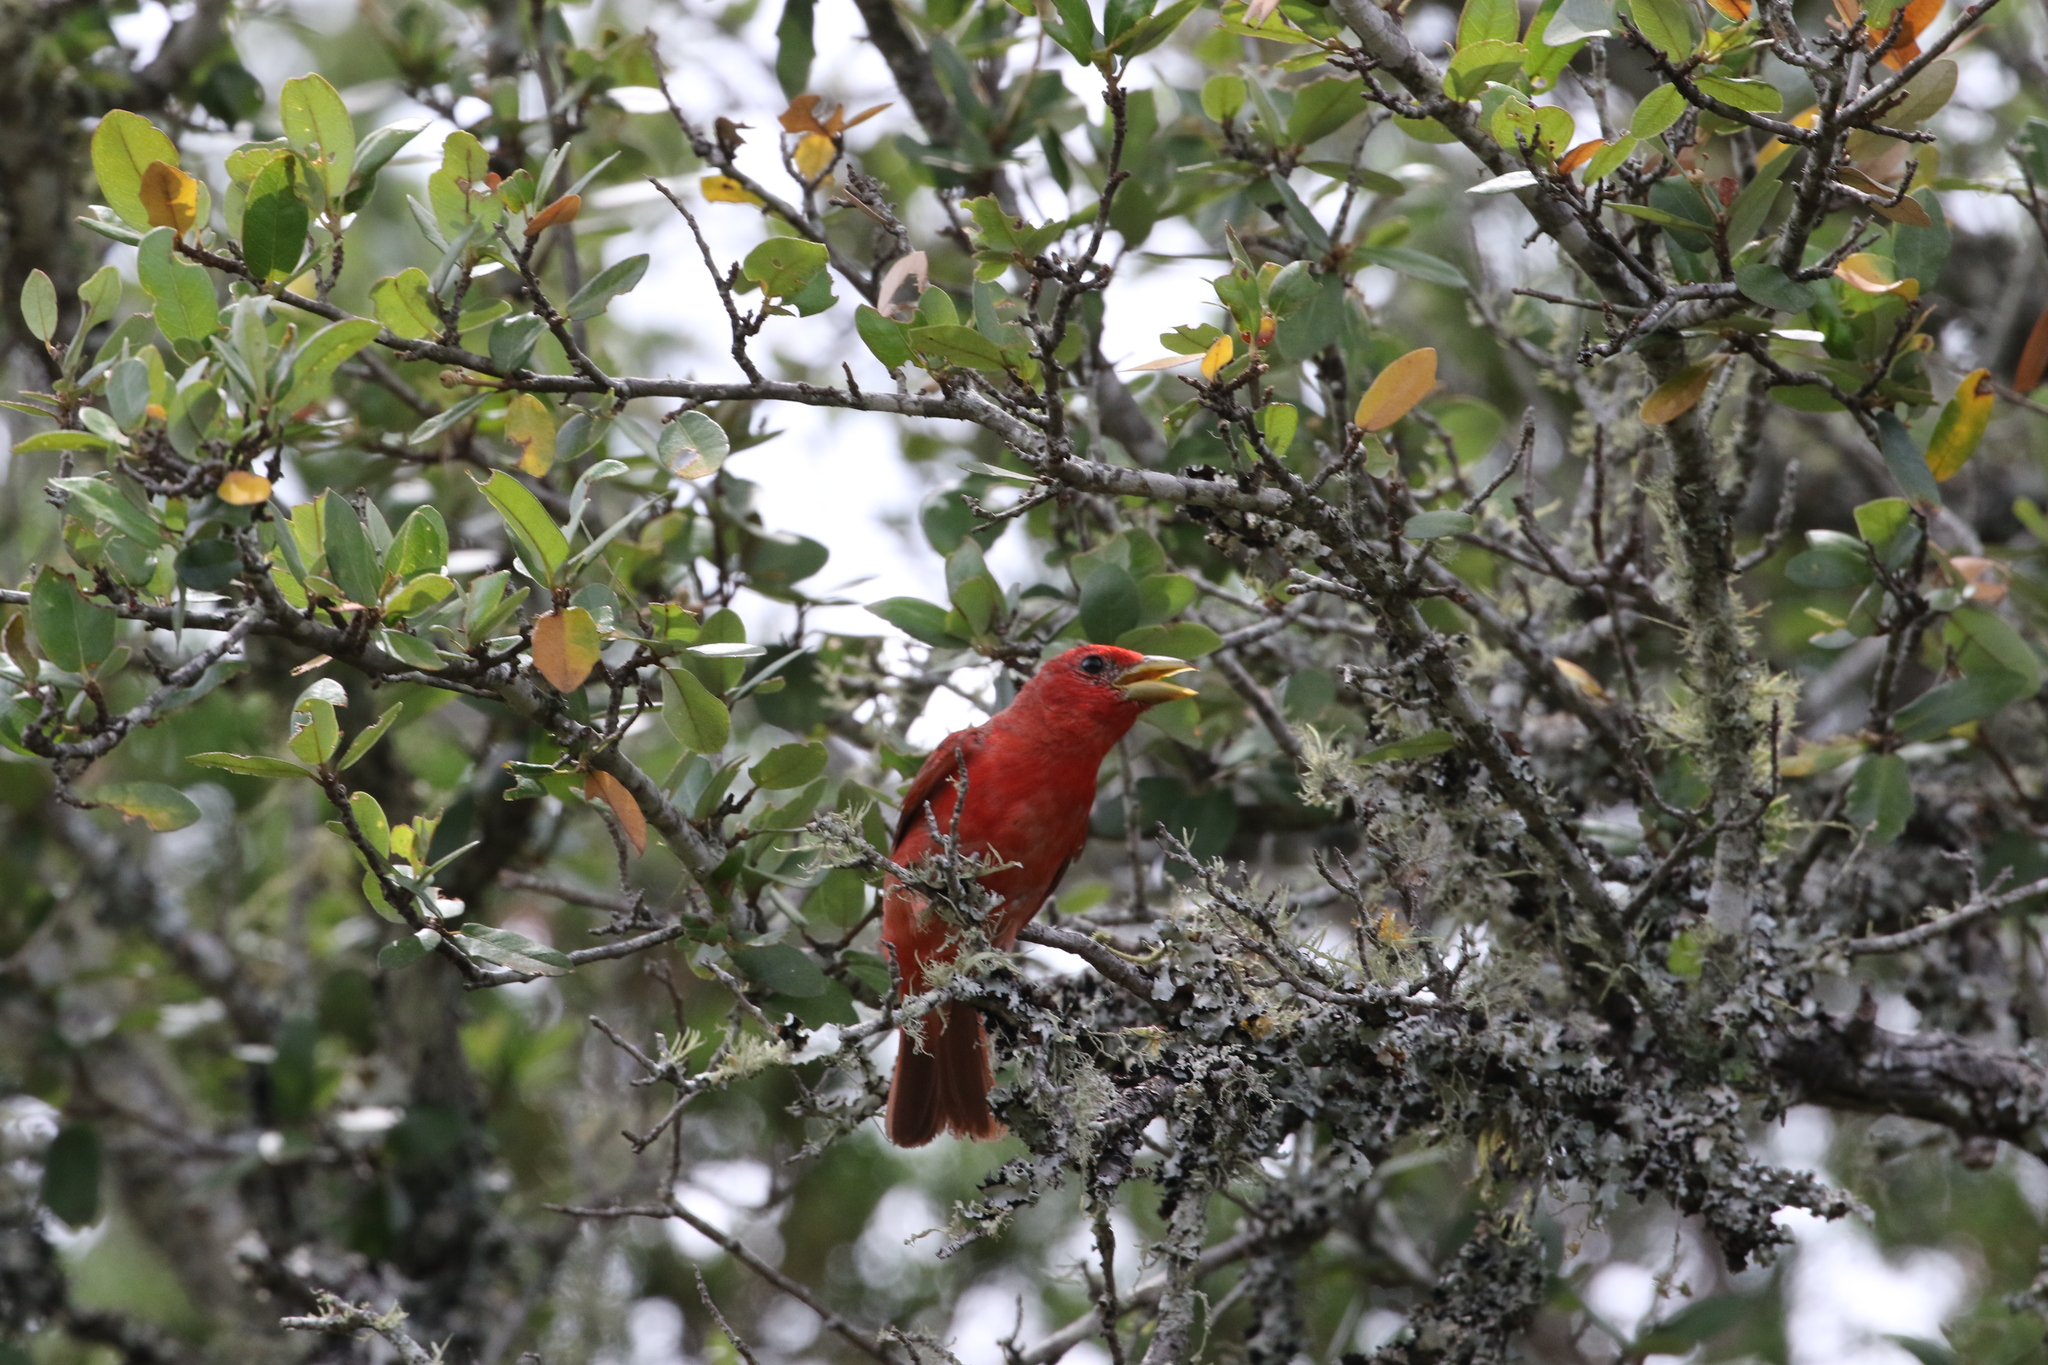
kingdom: Animalia
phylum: Chordata
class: Aves
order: Passeriformes
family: Cardinalidae
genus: Piranga
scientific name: Piranga rubra
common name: Summer tanager
